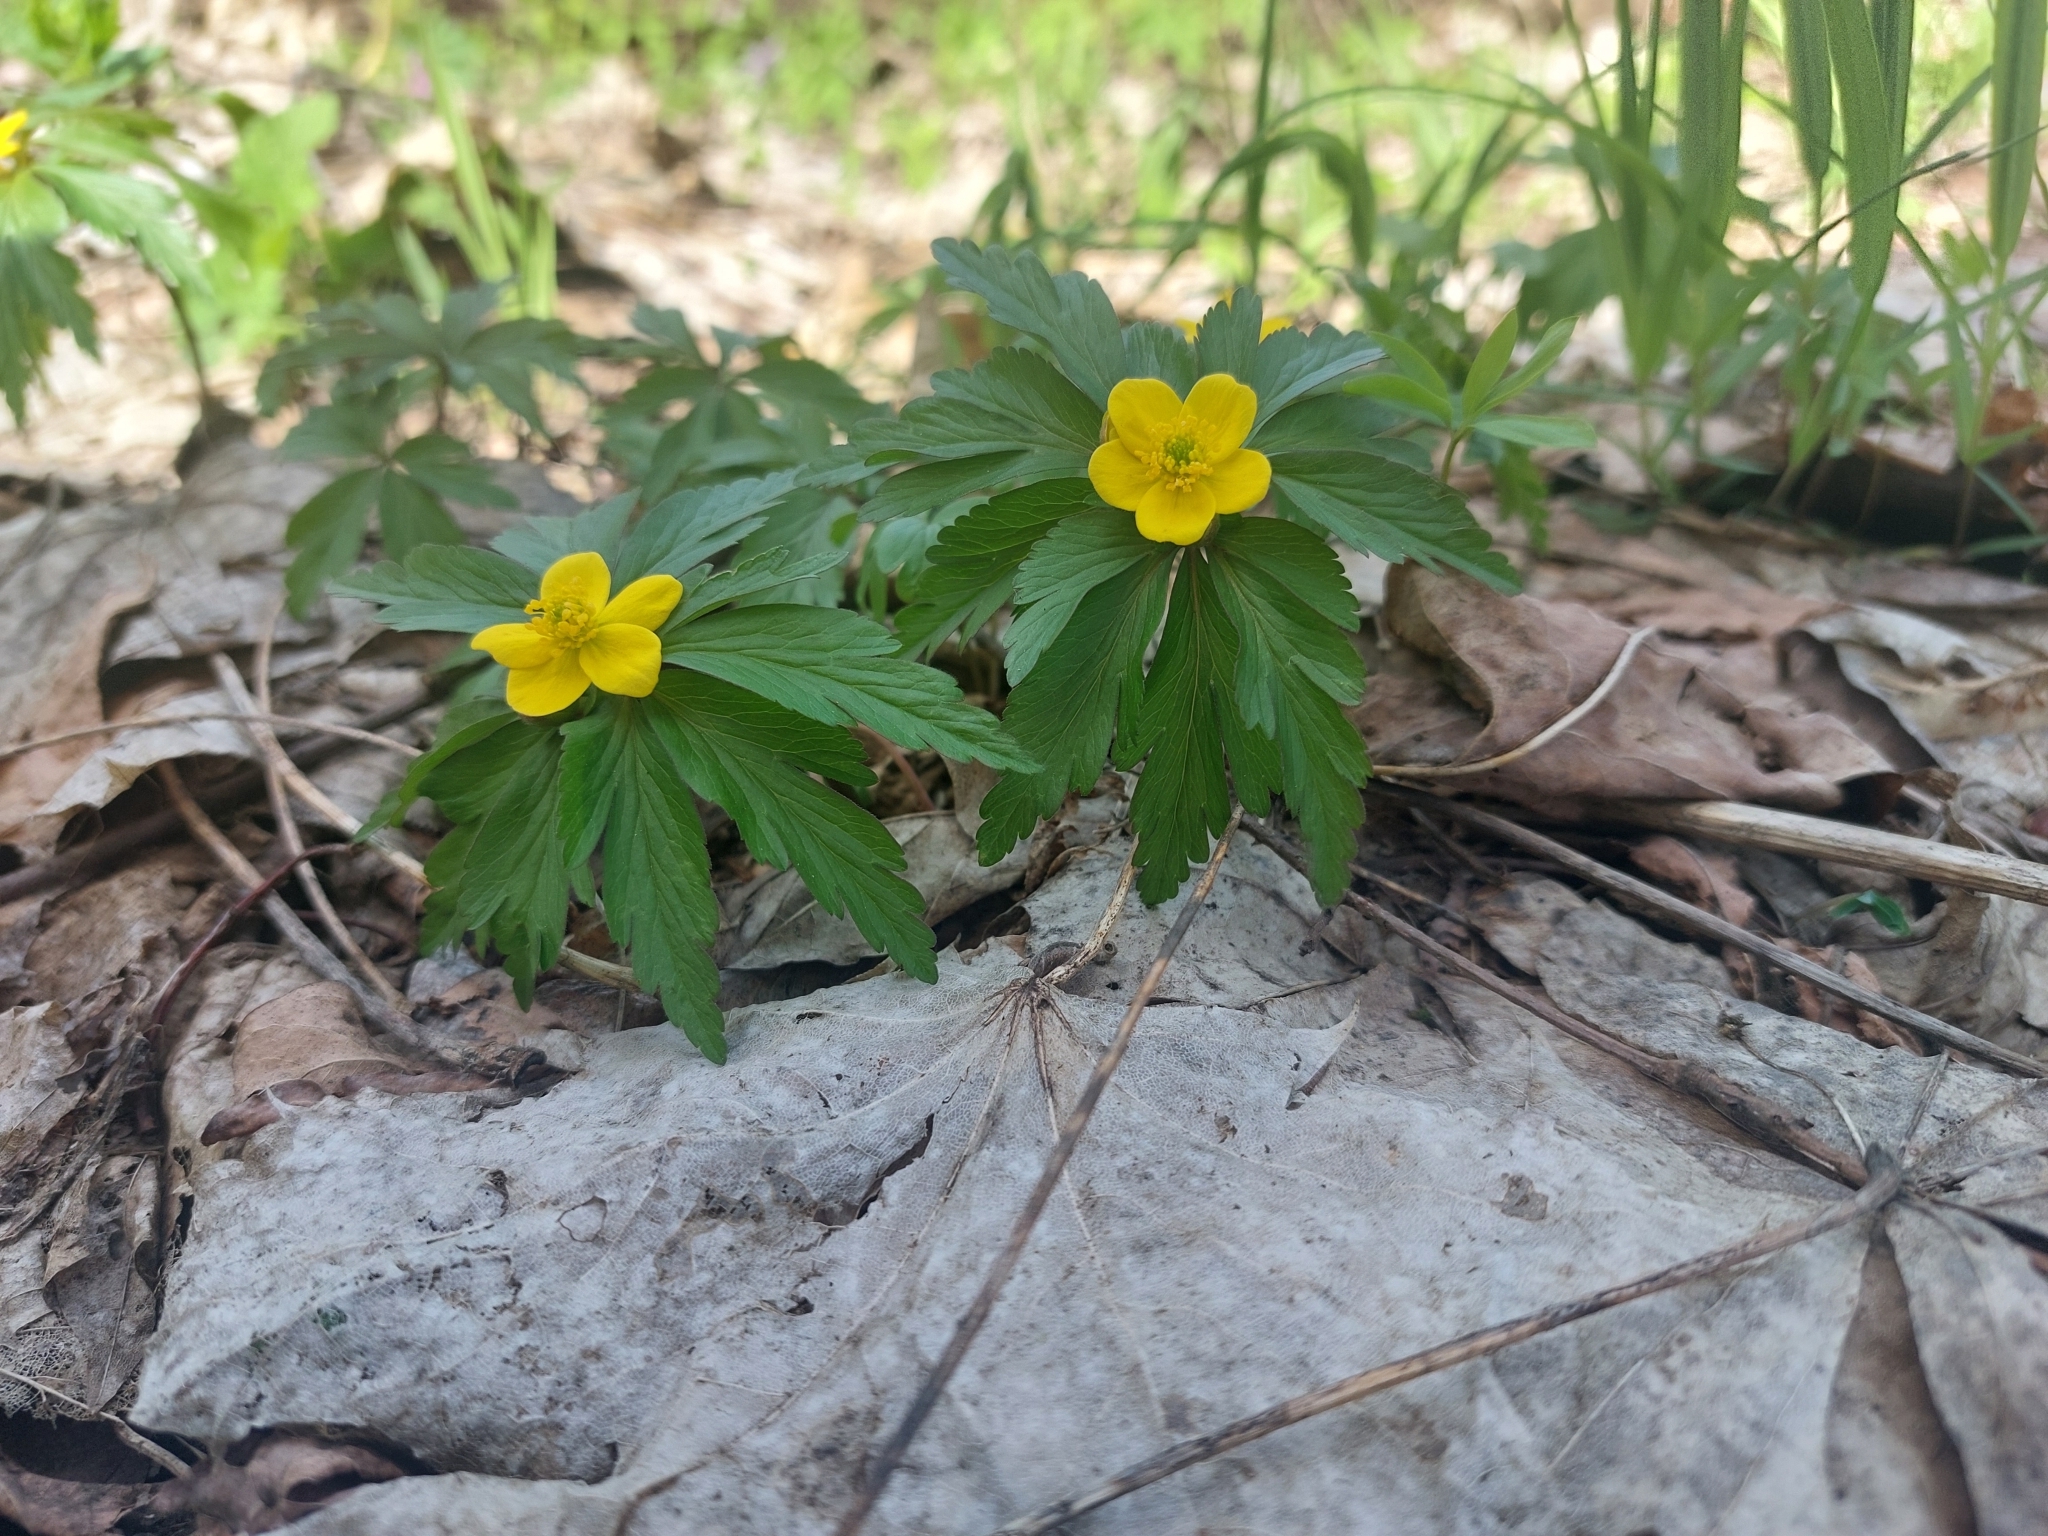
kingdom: Plantae
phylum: Tracheophyta
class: Magnoliopsida
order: Ranunculales
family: Ranunculaceae
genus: Anemone
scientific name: Anemone ranunculoides
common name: Yellow anemone
